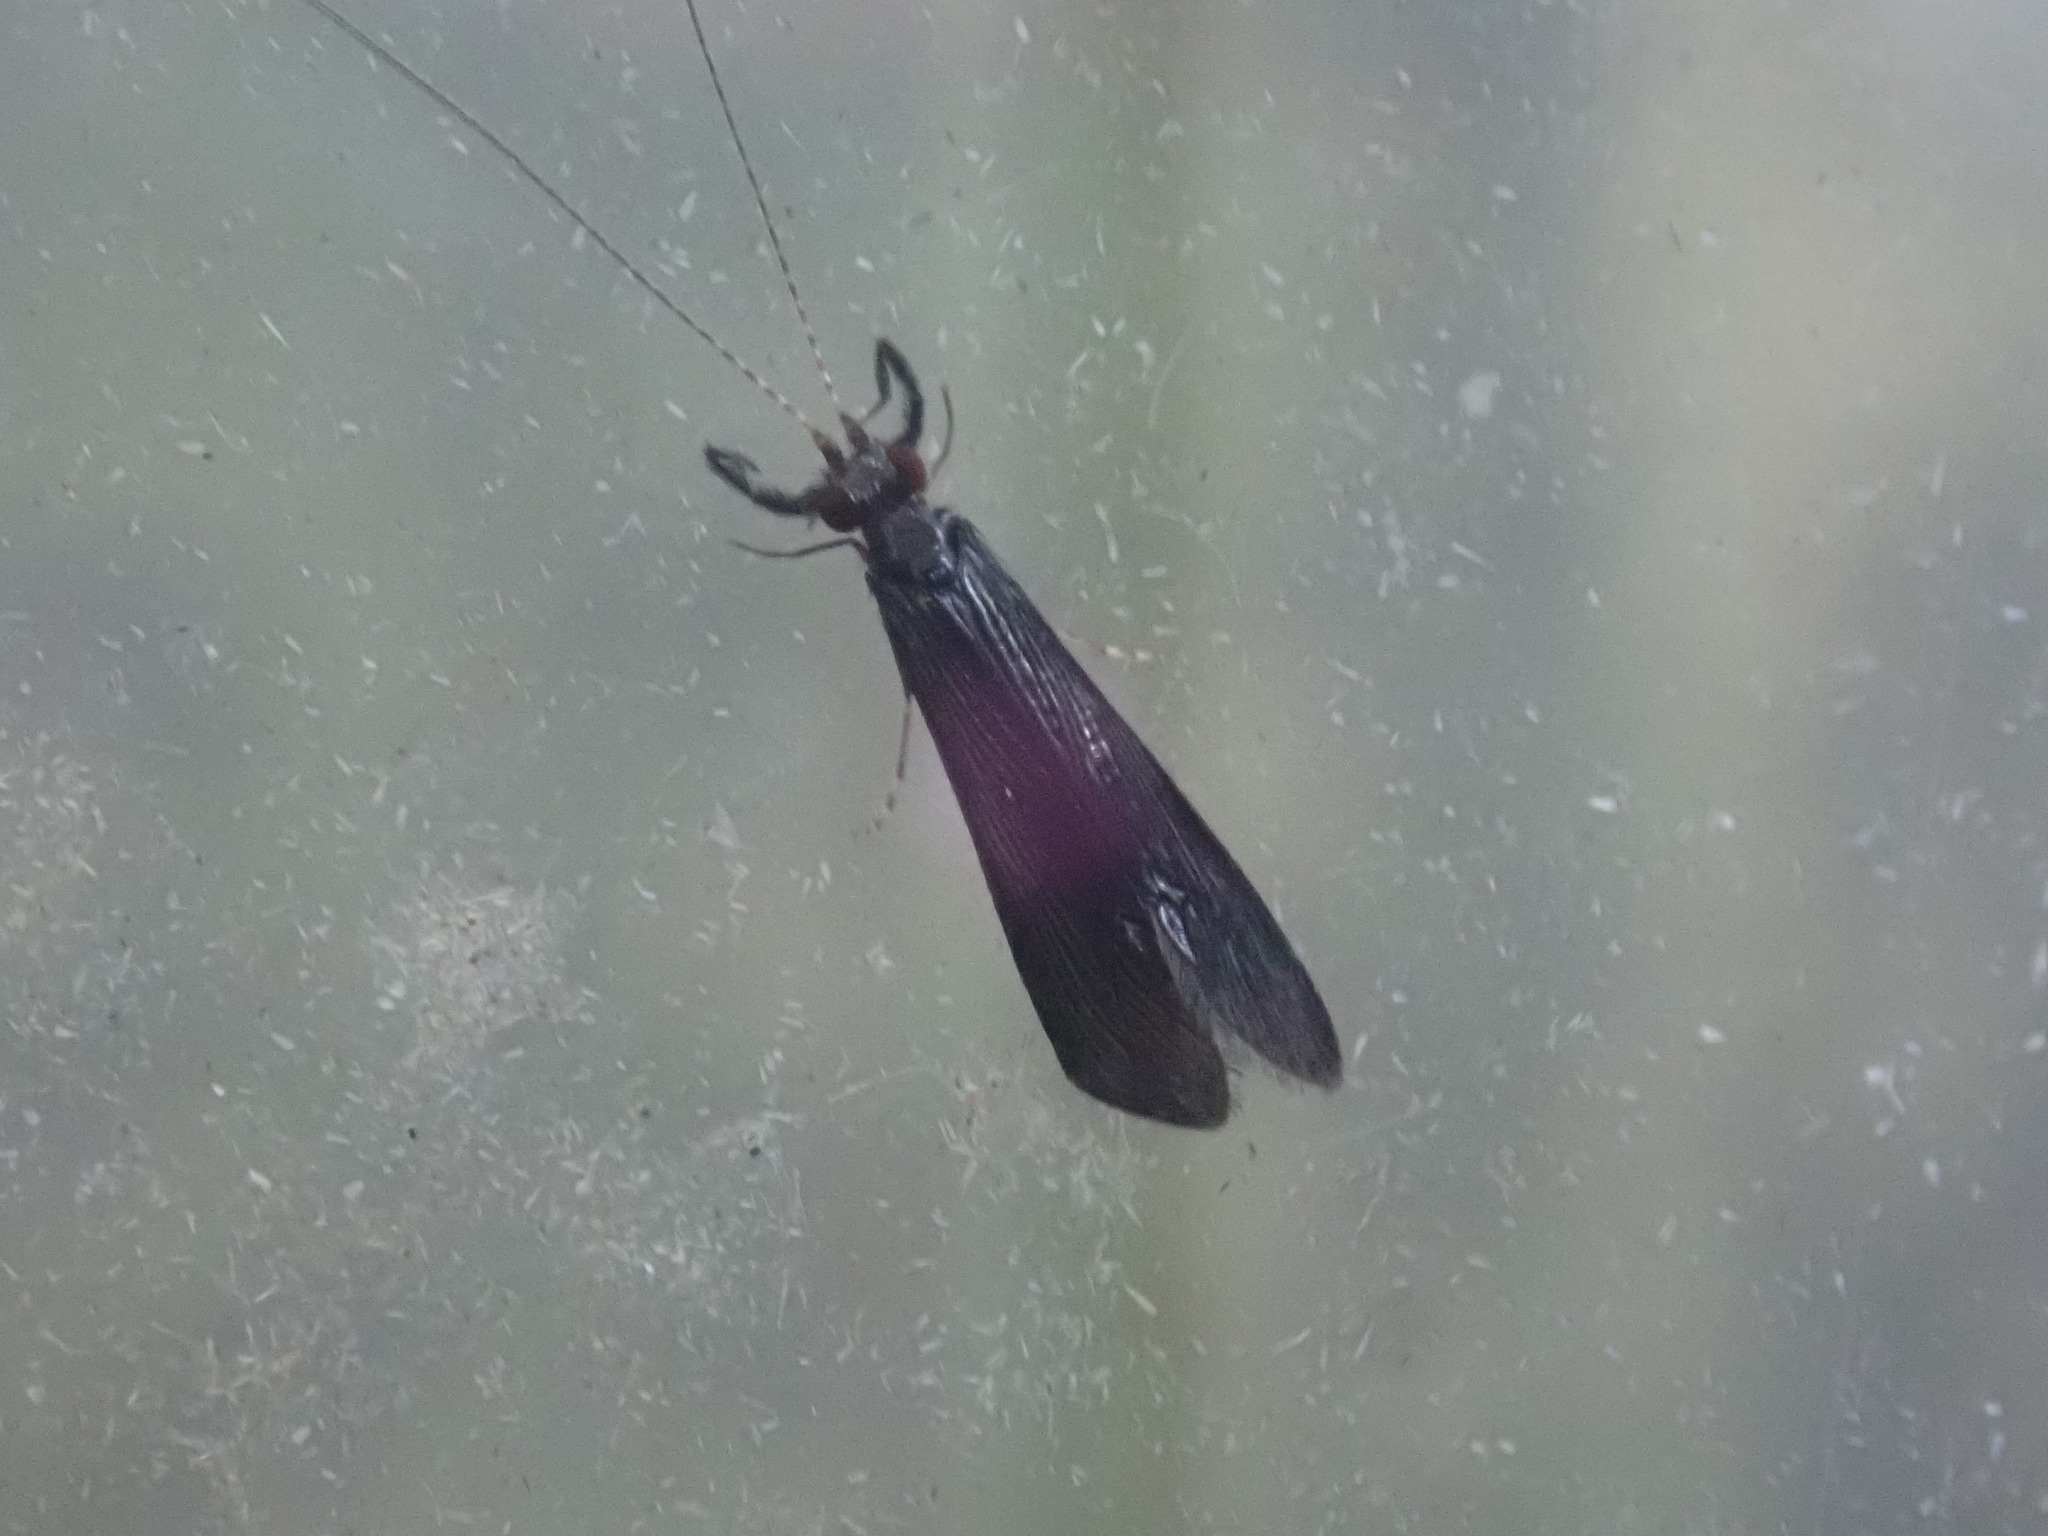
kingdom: Animalia
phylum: Arthropoda
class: Insecta
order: Trichoptera
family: Leptoceridae
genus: Mystacides
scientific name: Mystacides sepulchralis
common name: Black dancer caddisfly
